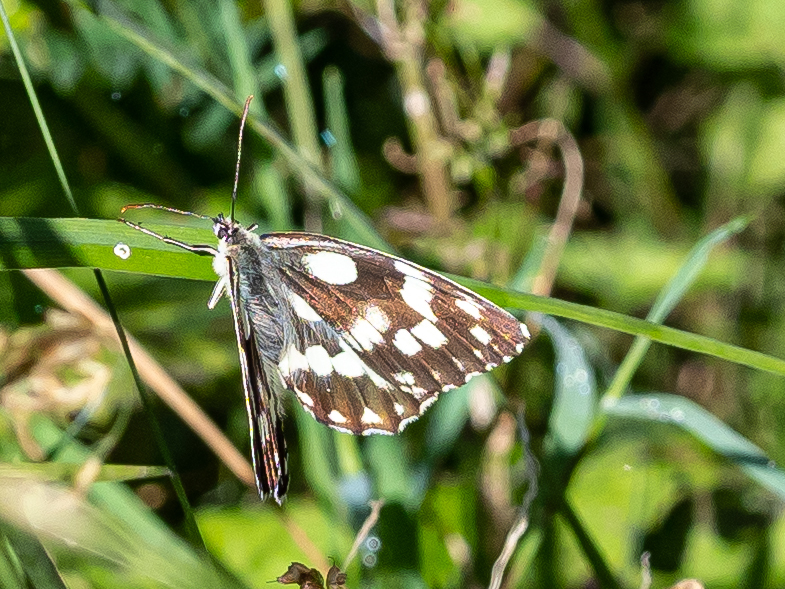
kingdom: Animalia
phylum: Arthropoda
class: Insecta
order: Lepidoptera
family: Nymphalidae
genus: Melanargia
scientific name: Melanargia galathea
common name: Marbled white
